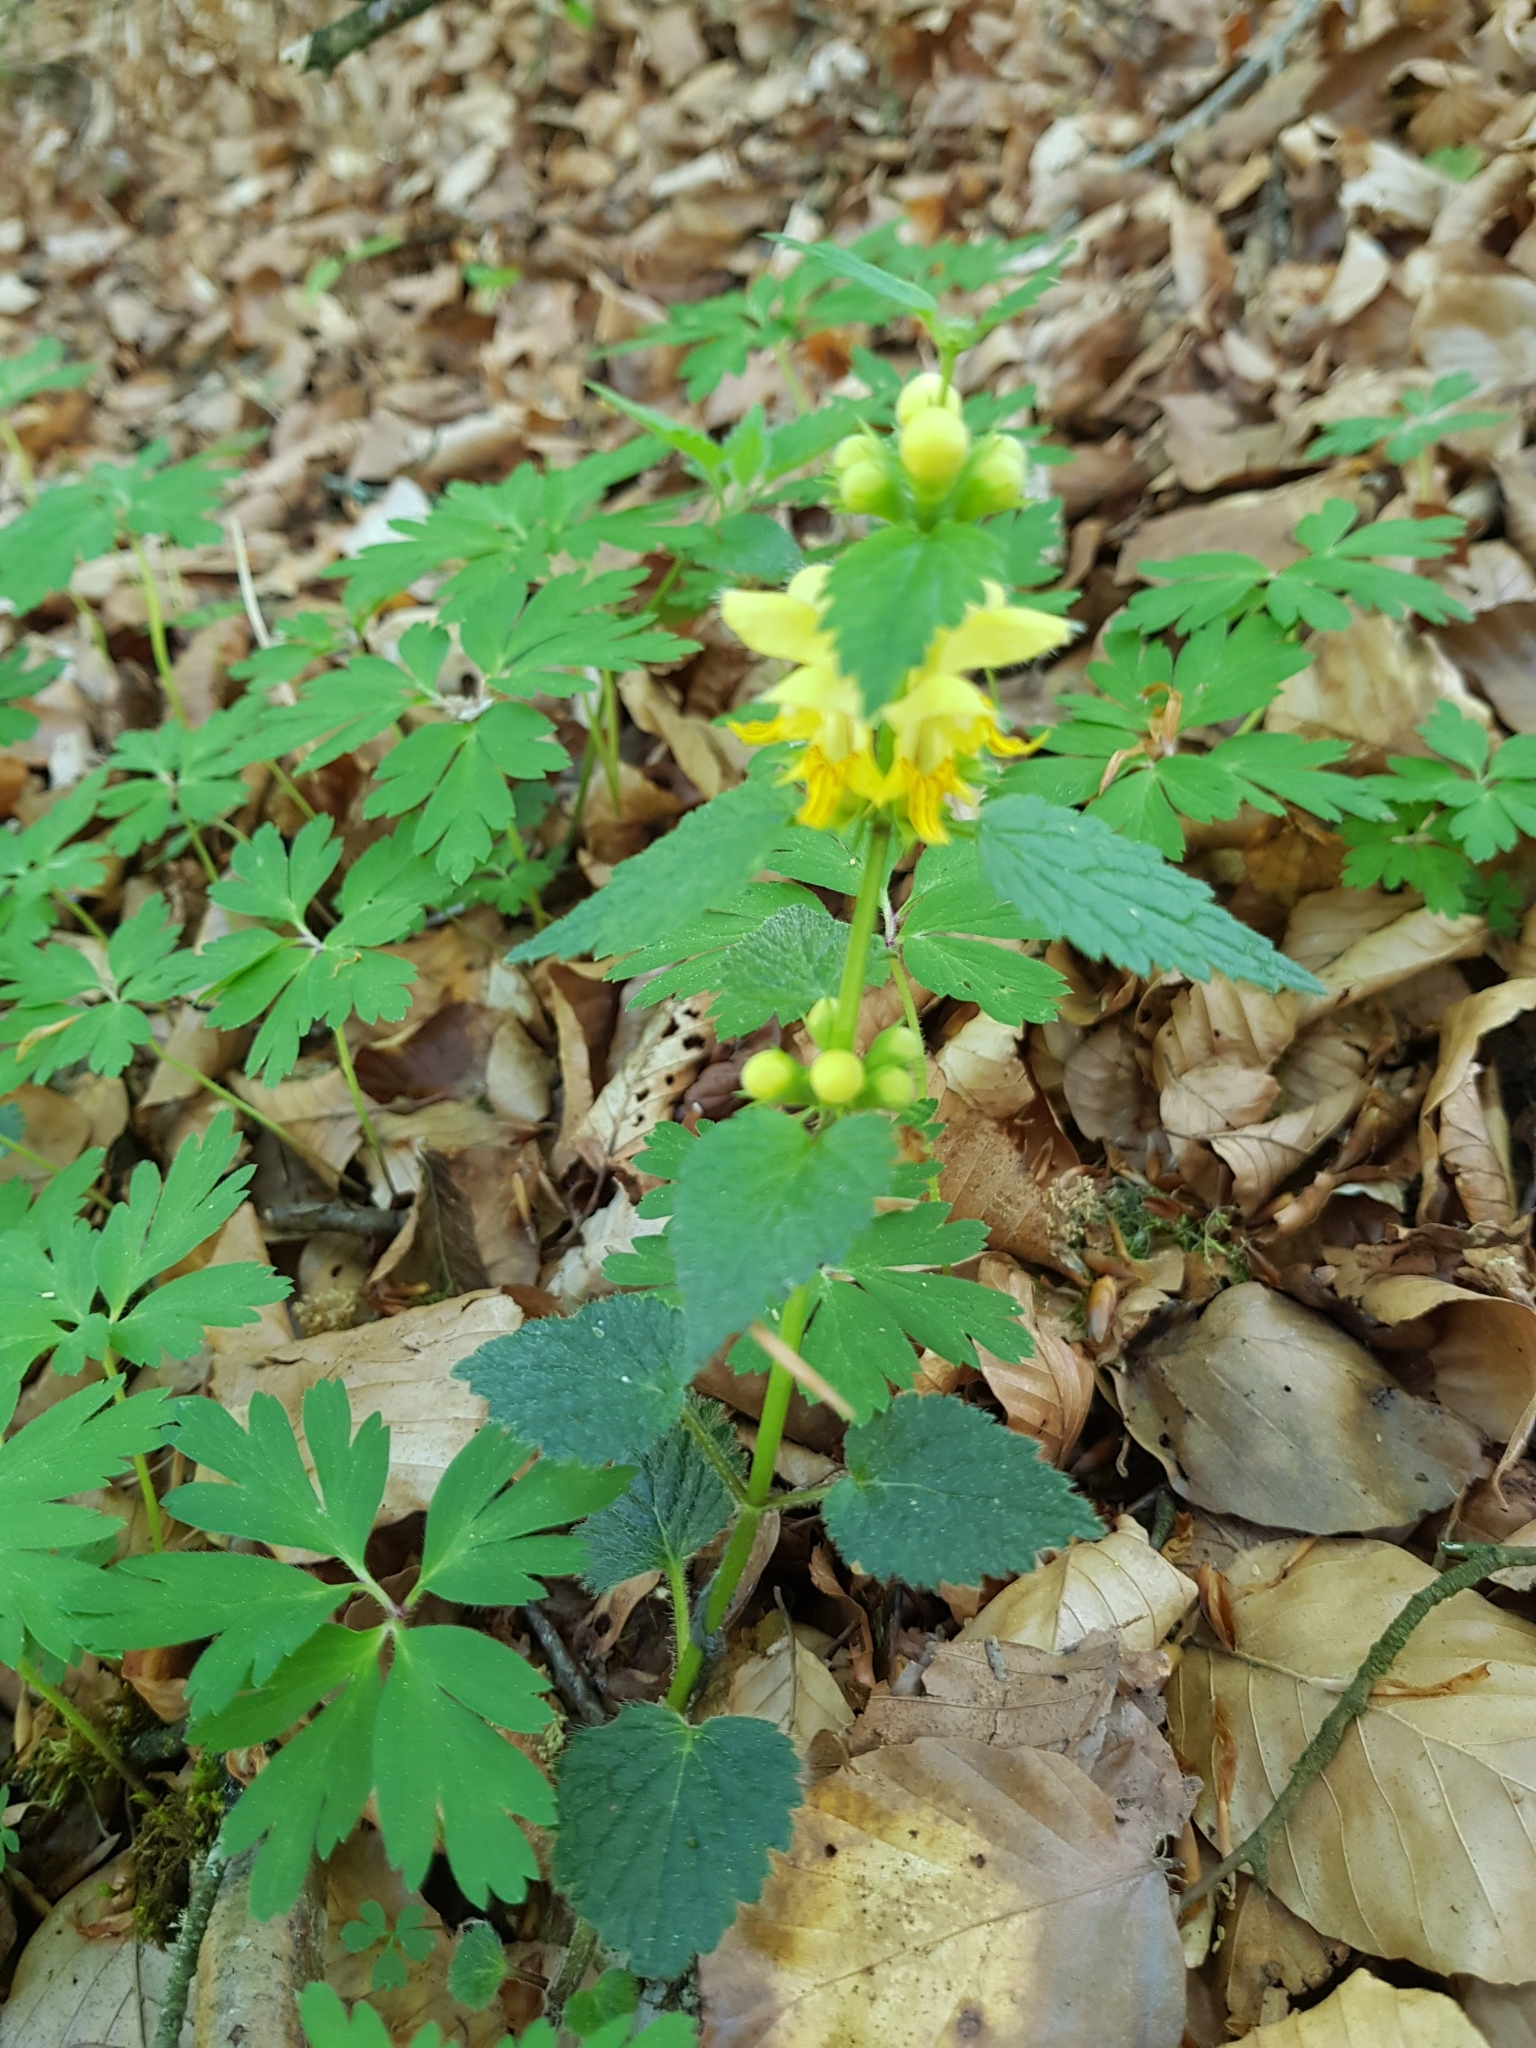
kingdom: Plantae
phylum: Tracheophyta
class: Magnoliopsida
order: Lamiales
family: Lamiaceae
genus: Lamium
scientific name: Lamium galeobdolon
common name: Yellow archangel
